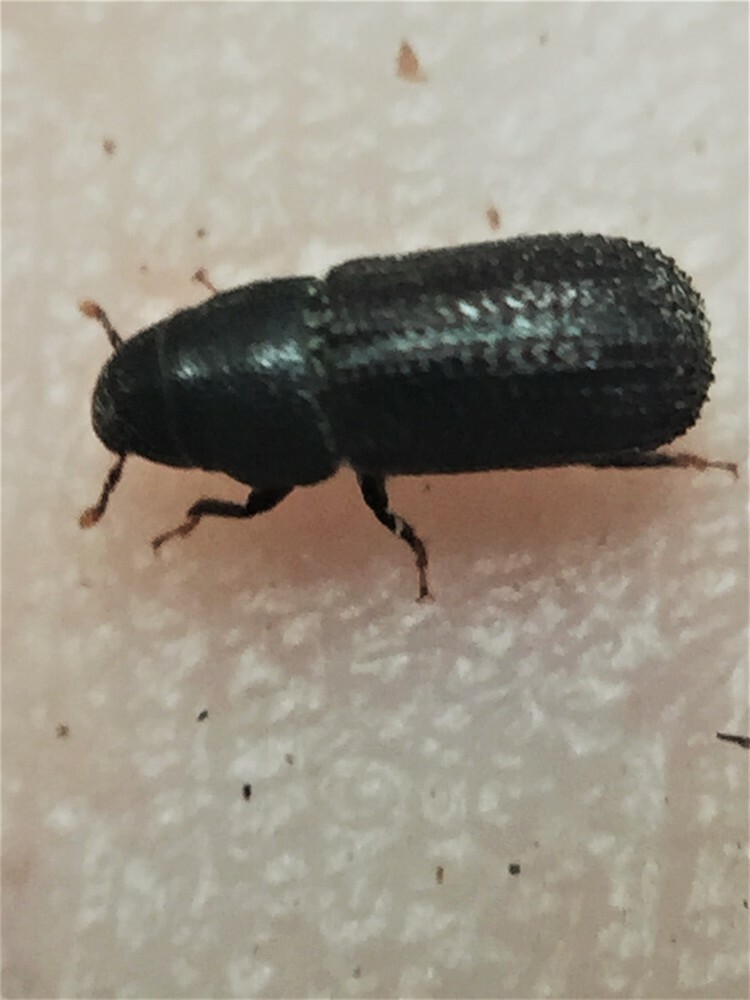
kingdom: Animalia
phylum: Arthropoda
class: Insecta
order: Coleoptera
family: Curculionidae
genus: Stenoscelis
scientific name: Stenoscelis hylastoides
